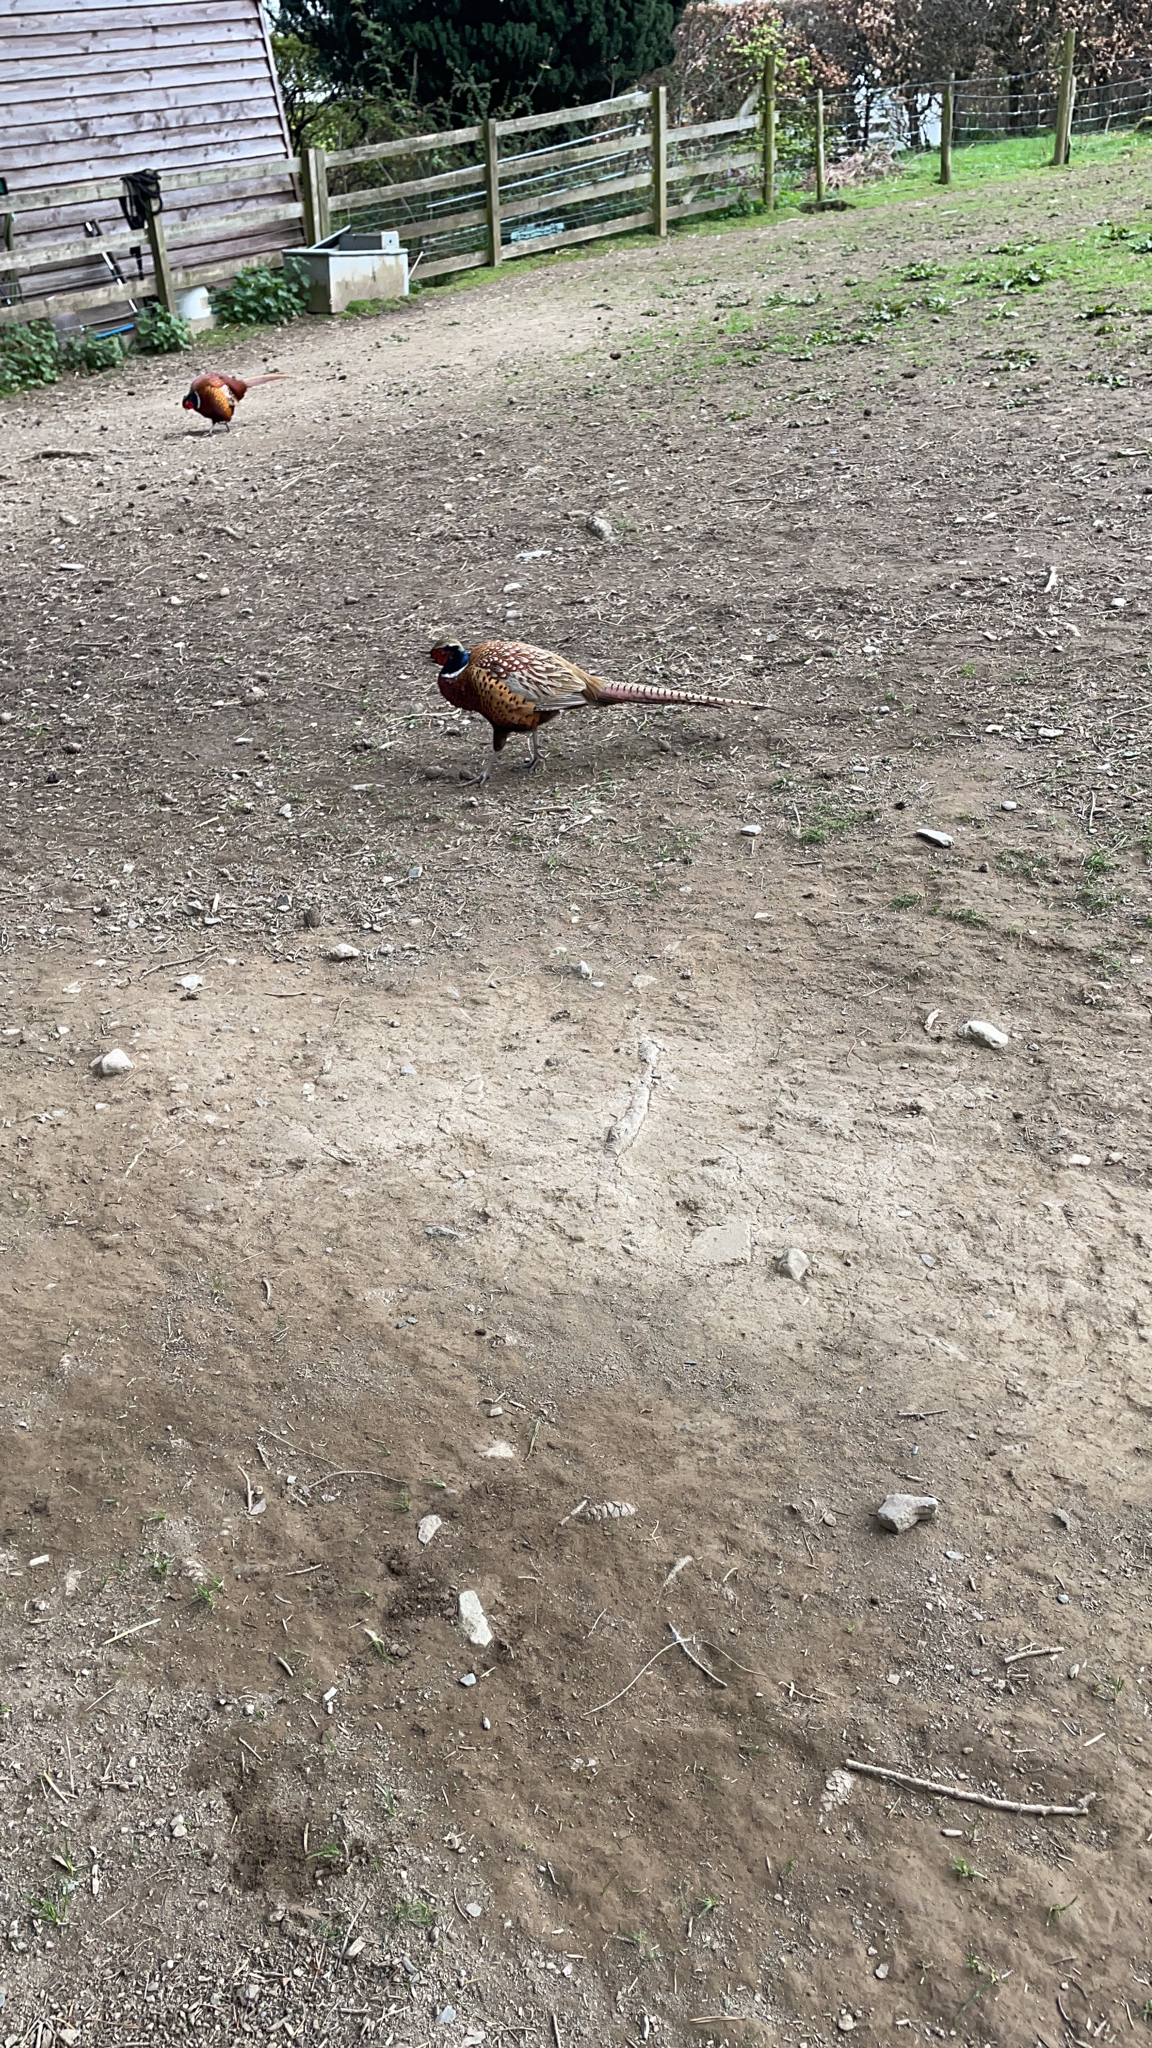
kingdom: Animalia
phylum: Chordata
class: Aves
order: Galliformes
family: Phasianidae
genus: Phasianus
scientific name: Phasianus colchicus
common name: Common pheasant
